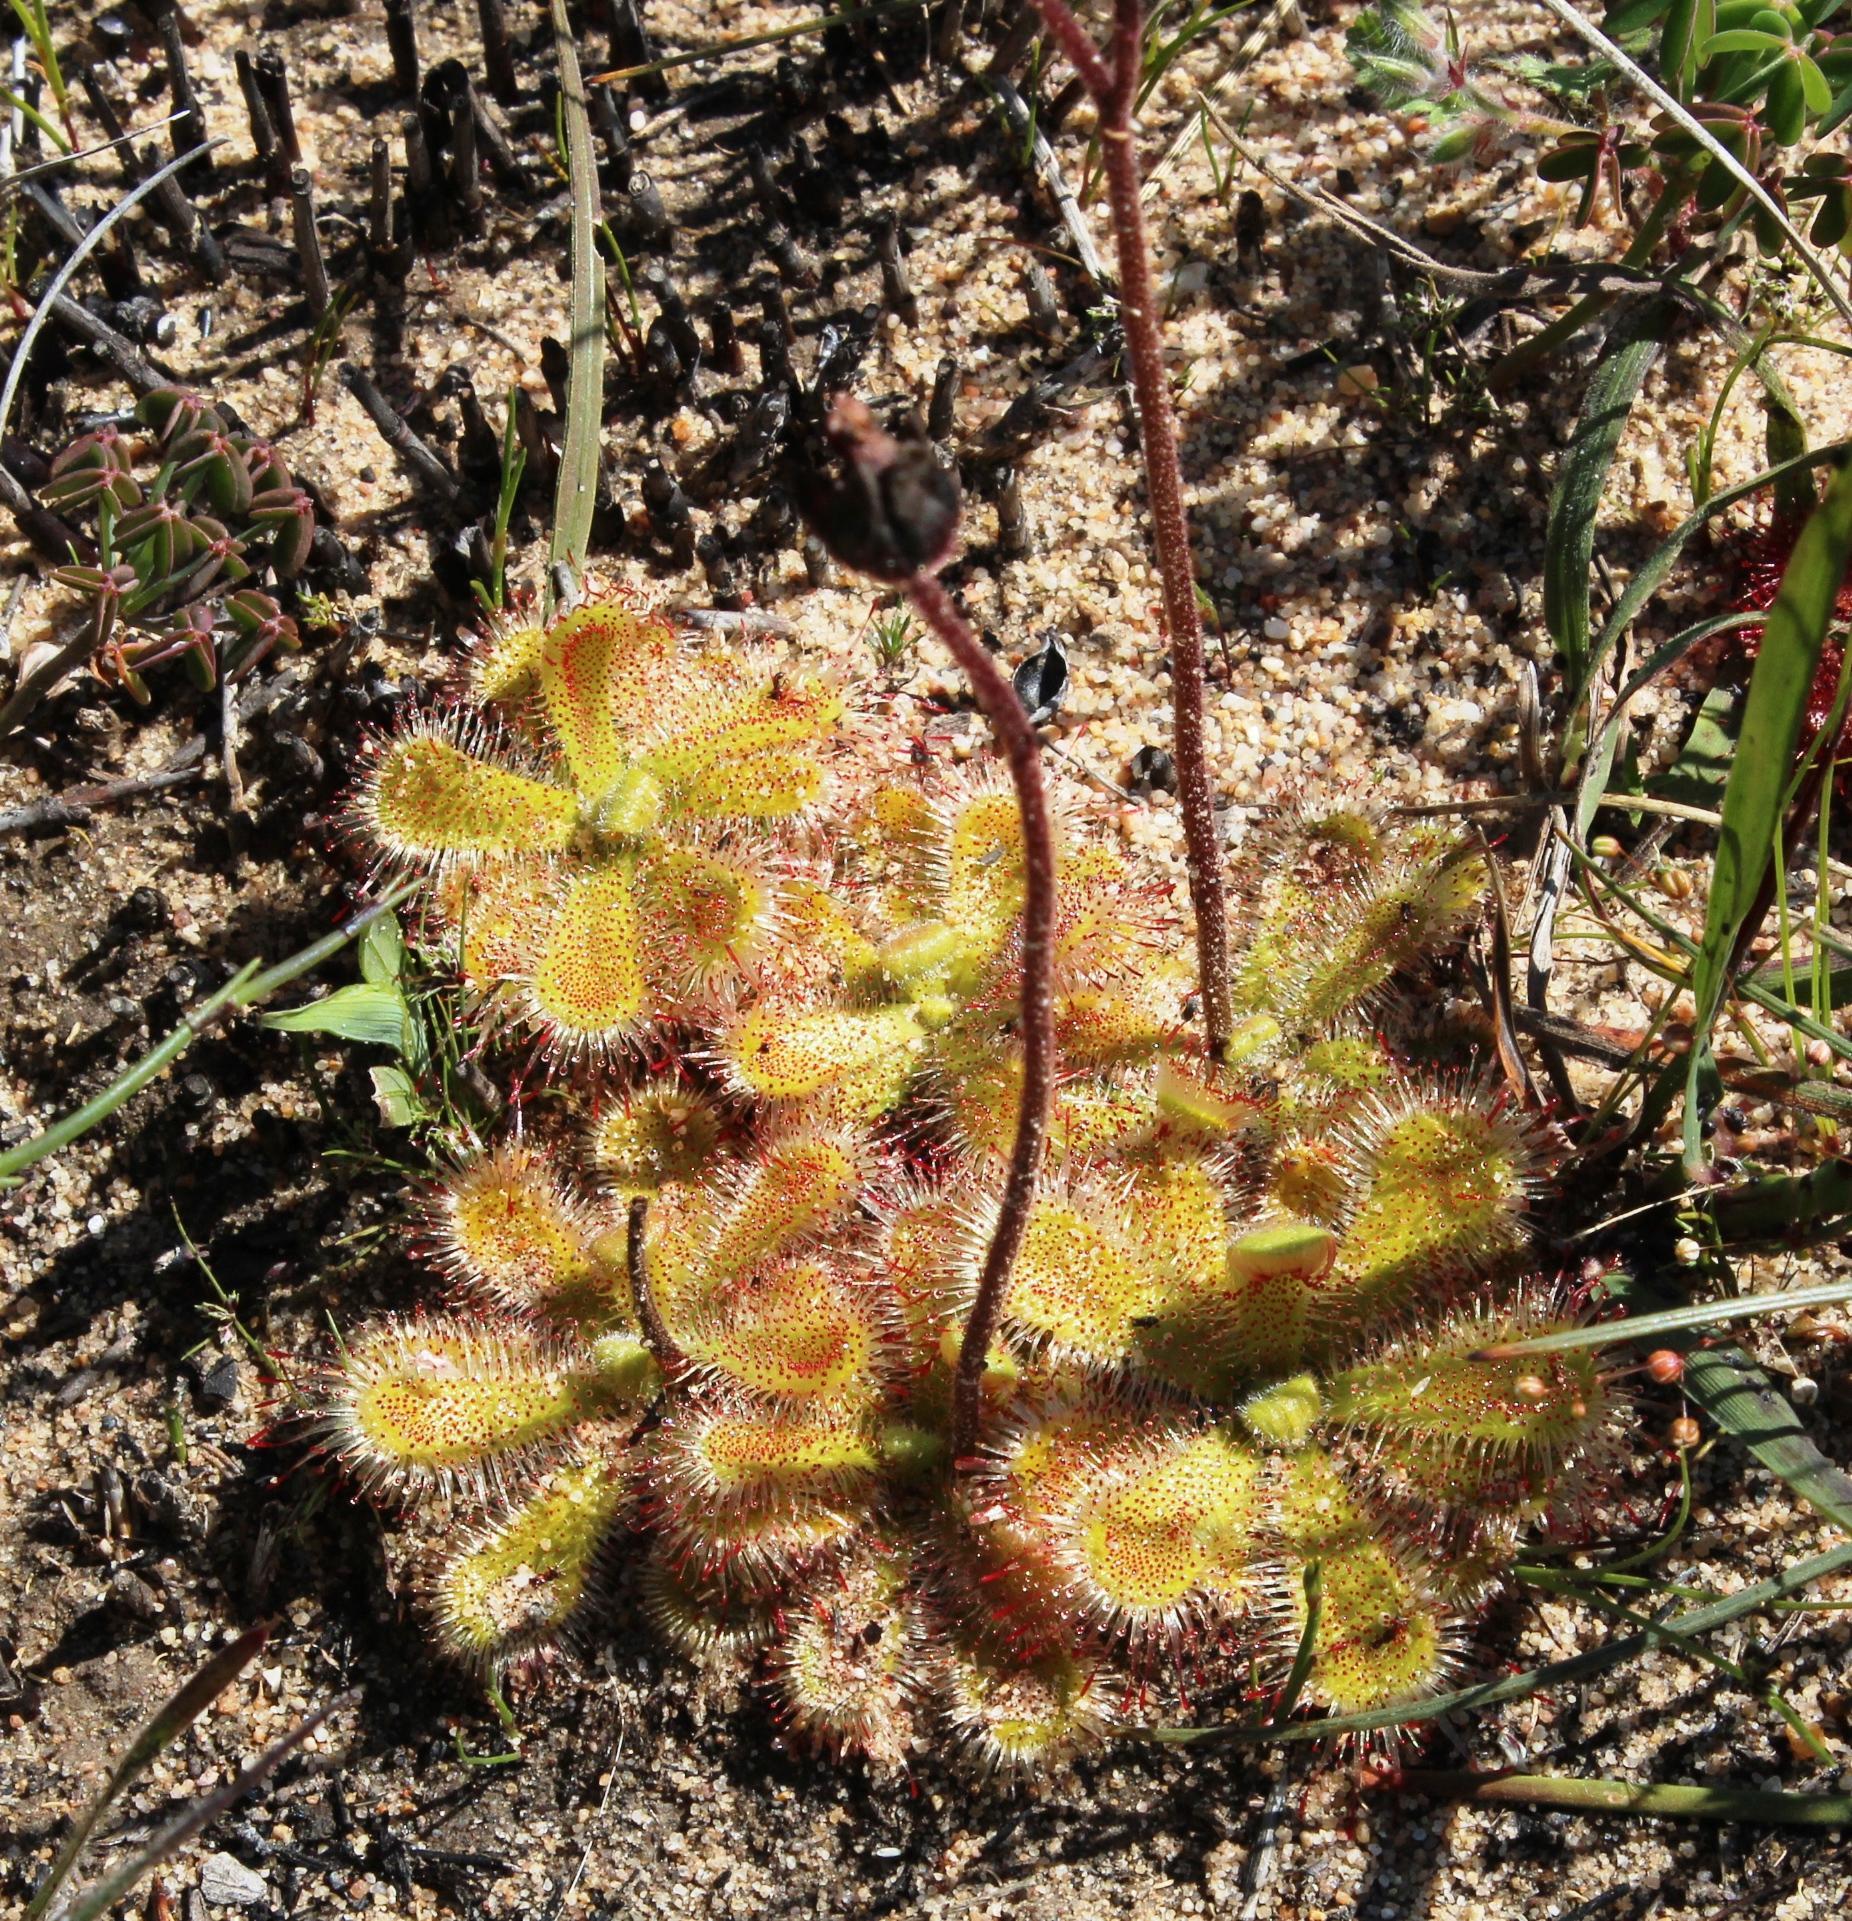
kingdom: Plantae
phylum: Tracheophyta
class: Magnoliopsida
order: Caryophyllales
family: Droseraceae
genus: Drosera
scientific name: Drosera pauciflora
